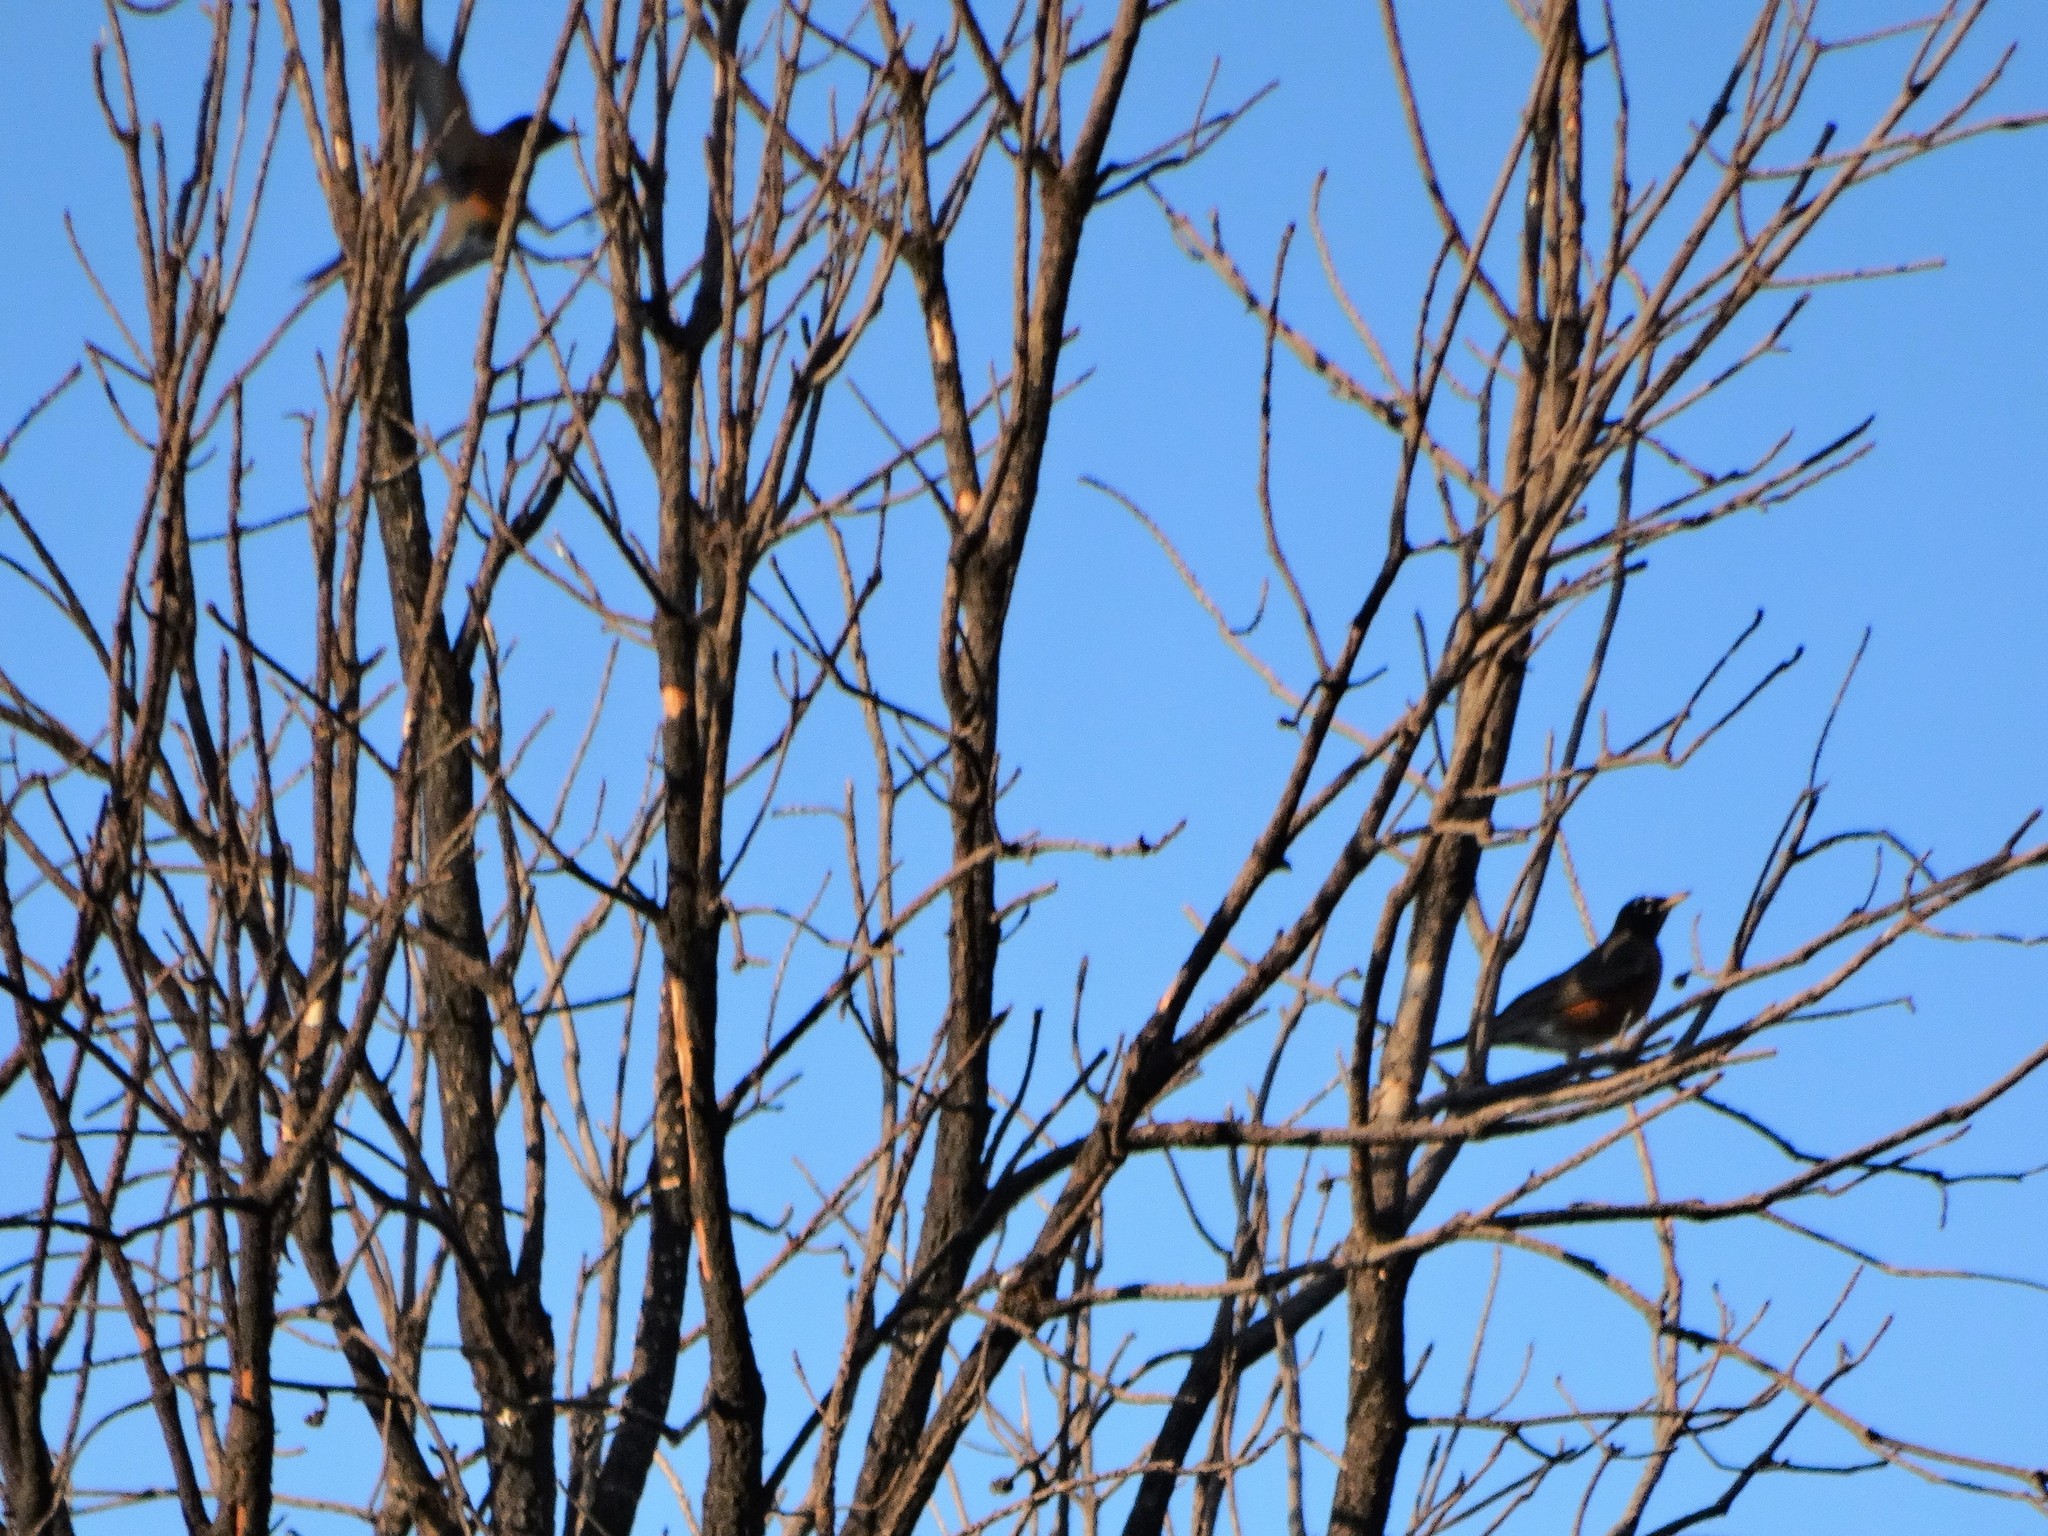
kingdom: Animalia
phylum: Chordata
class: Aves
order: Passeriformes
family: Turdidae
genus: Turdus
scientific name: Turdus migratorius
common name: American robin
